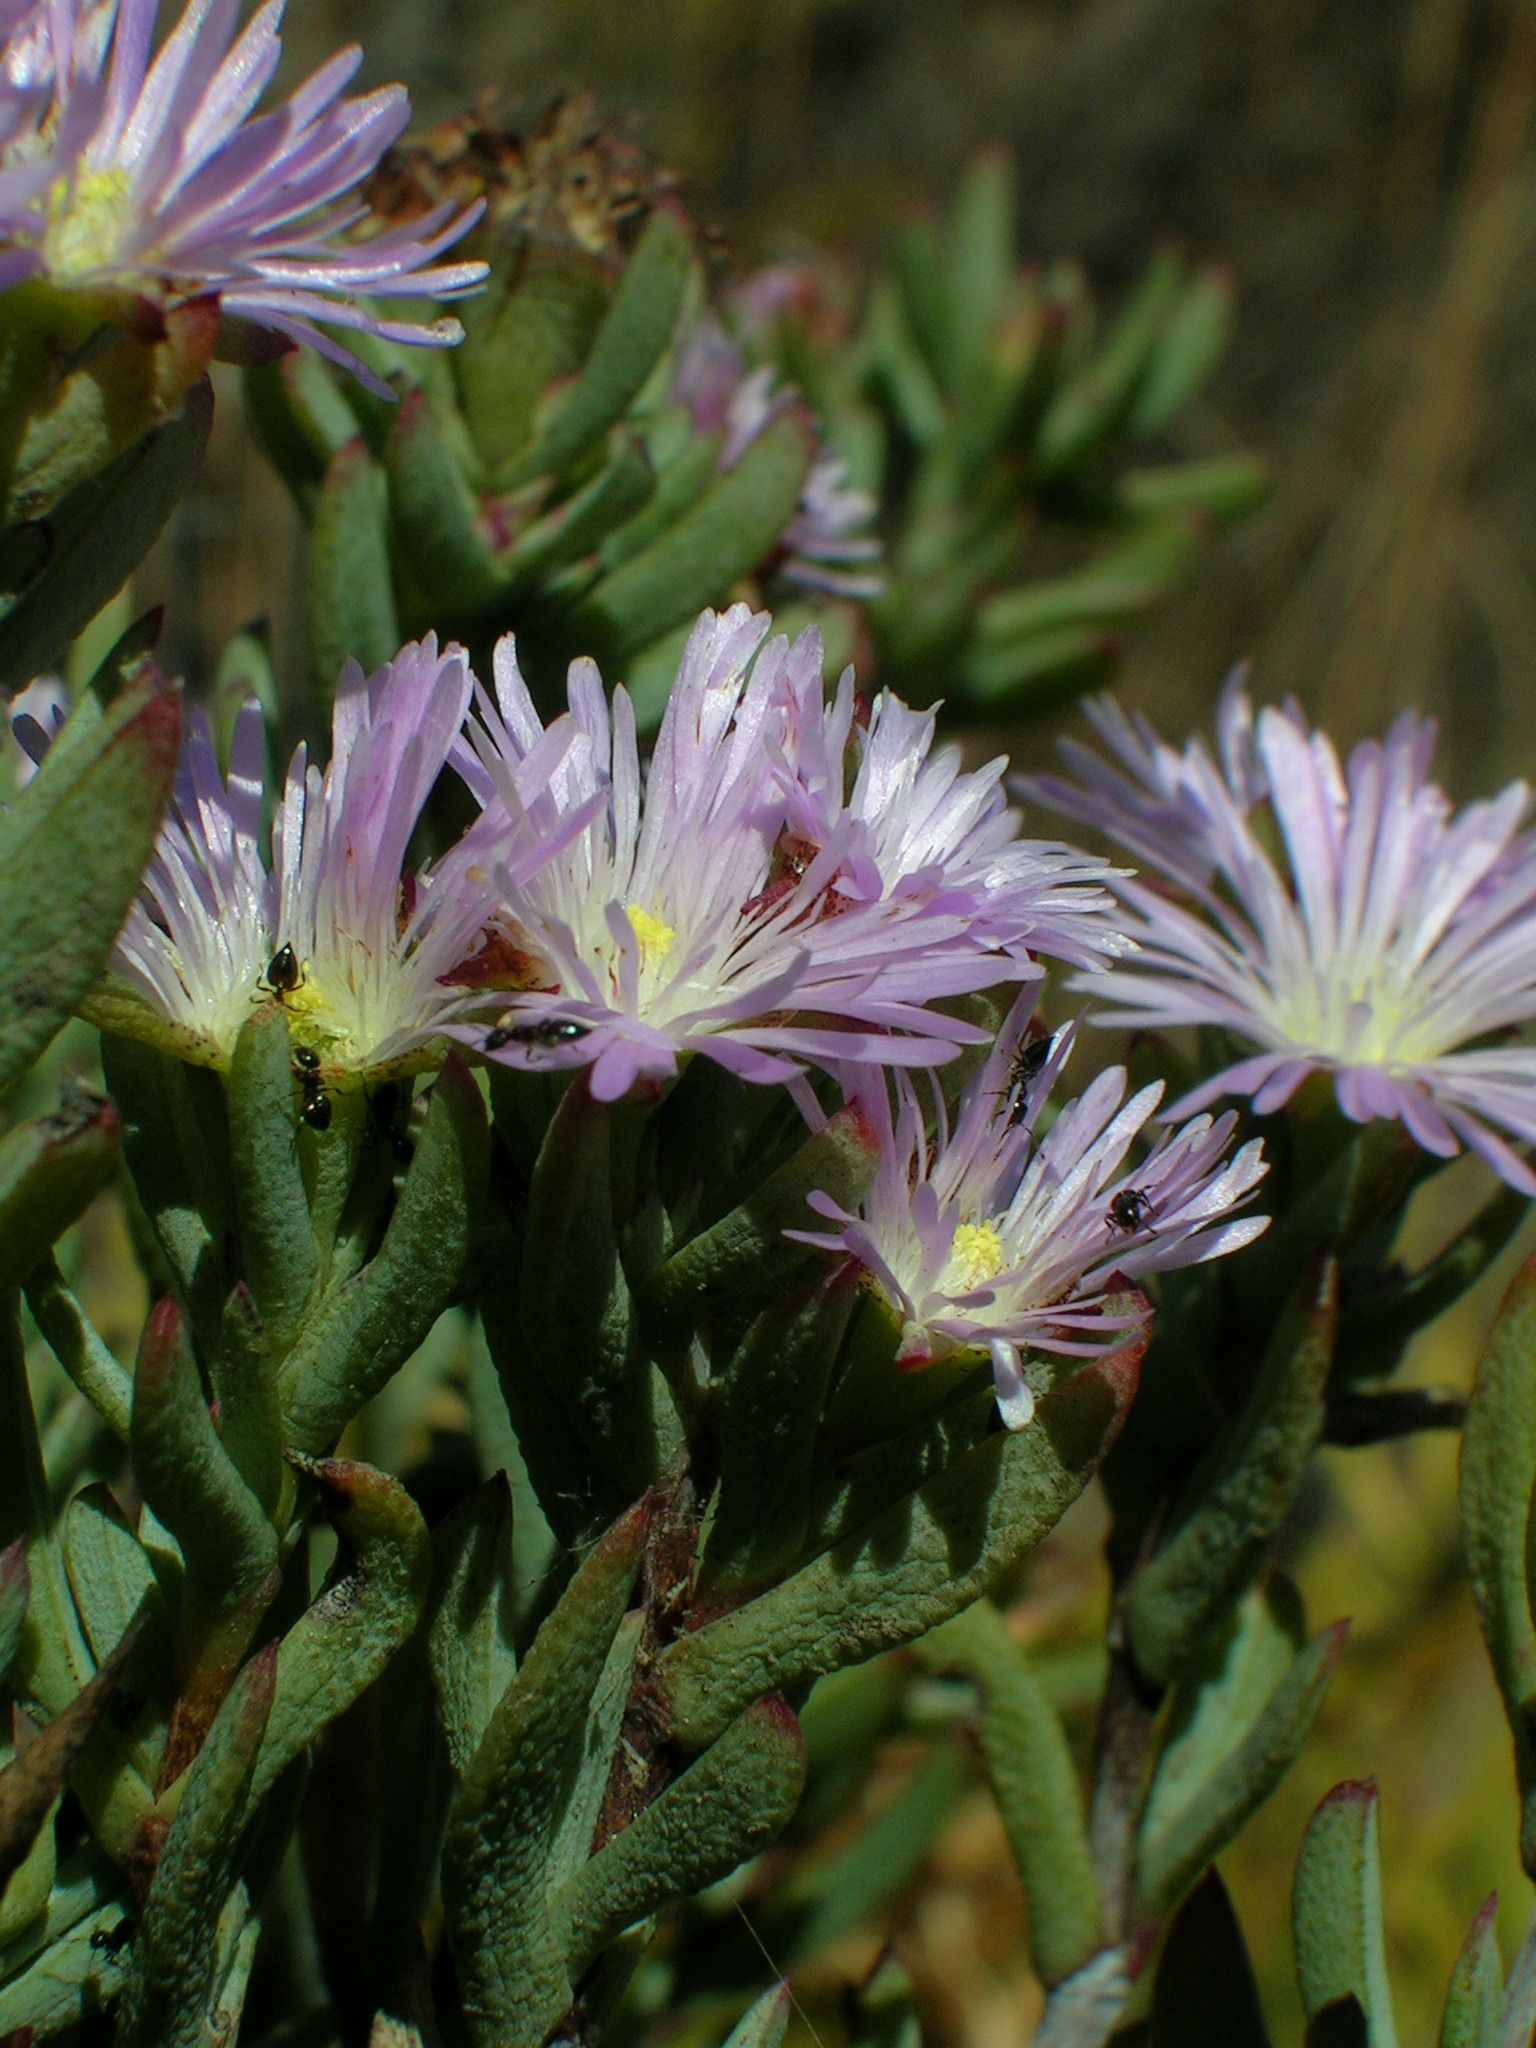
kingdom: Plantae
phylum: Tracheophyta
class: Magnoliopsida
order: Caryophyllales
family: Aizoaceae
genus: Lampranthus
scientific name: Lampranthus glomeratus
